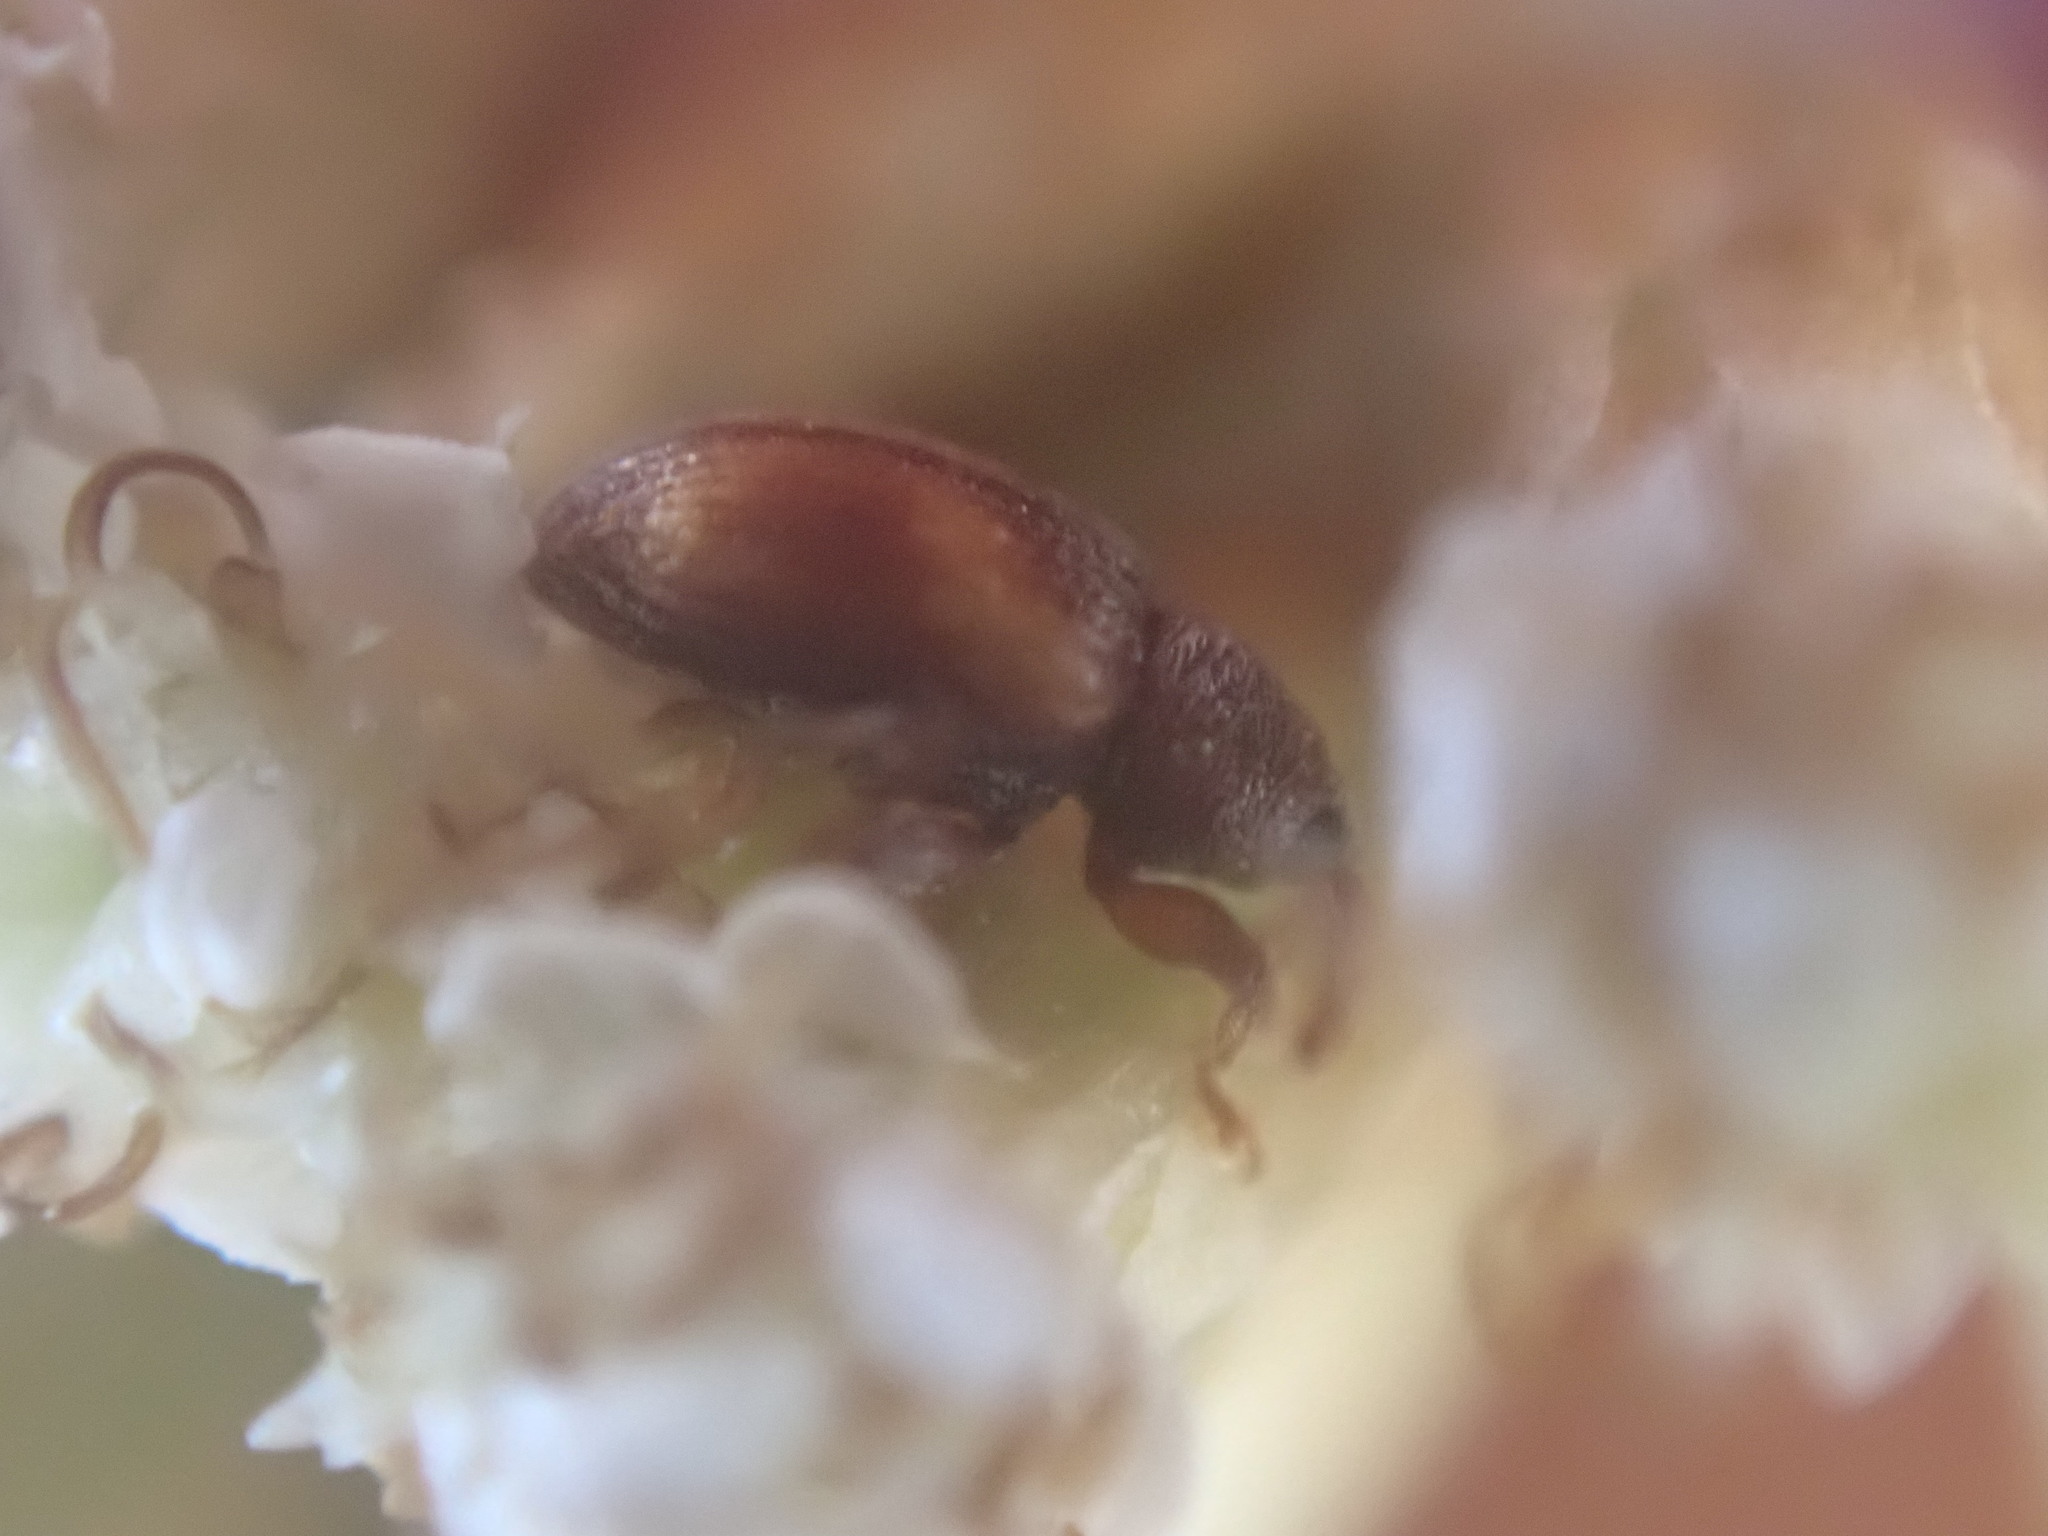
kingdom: Animalia
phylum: Arthropoda
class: Insecta
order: Coleoptera
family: Curculionidae
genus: Simachus
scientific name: Simachus montanus
